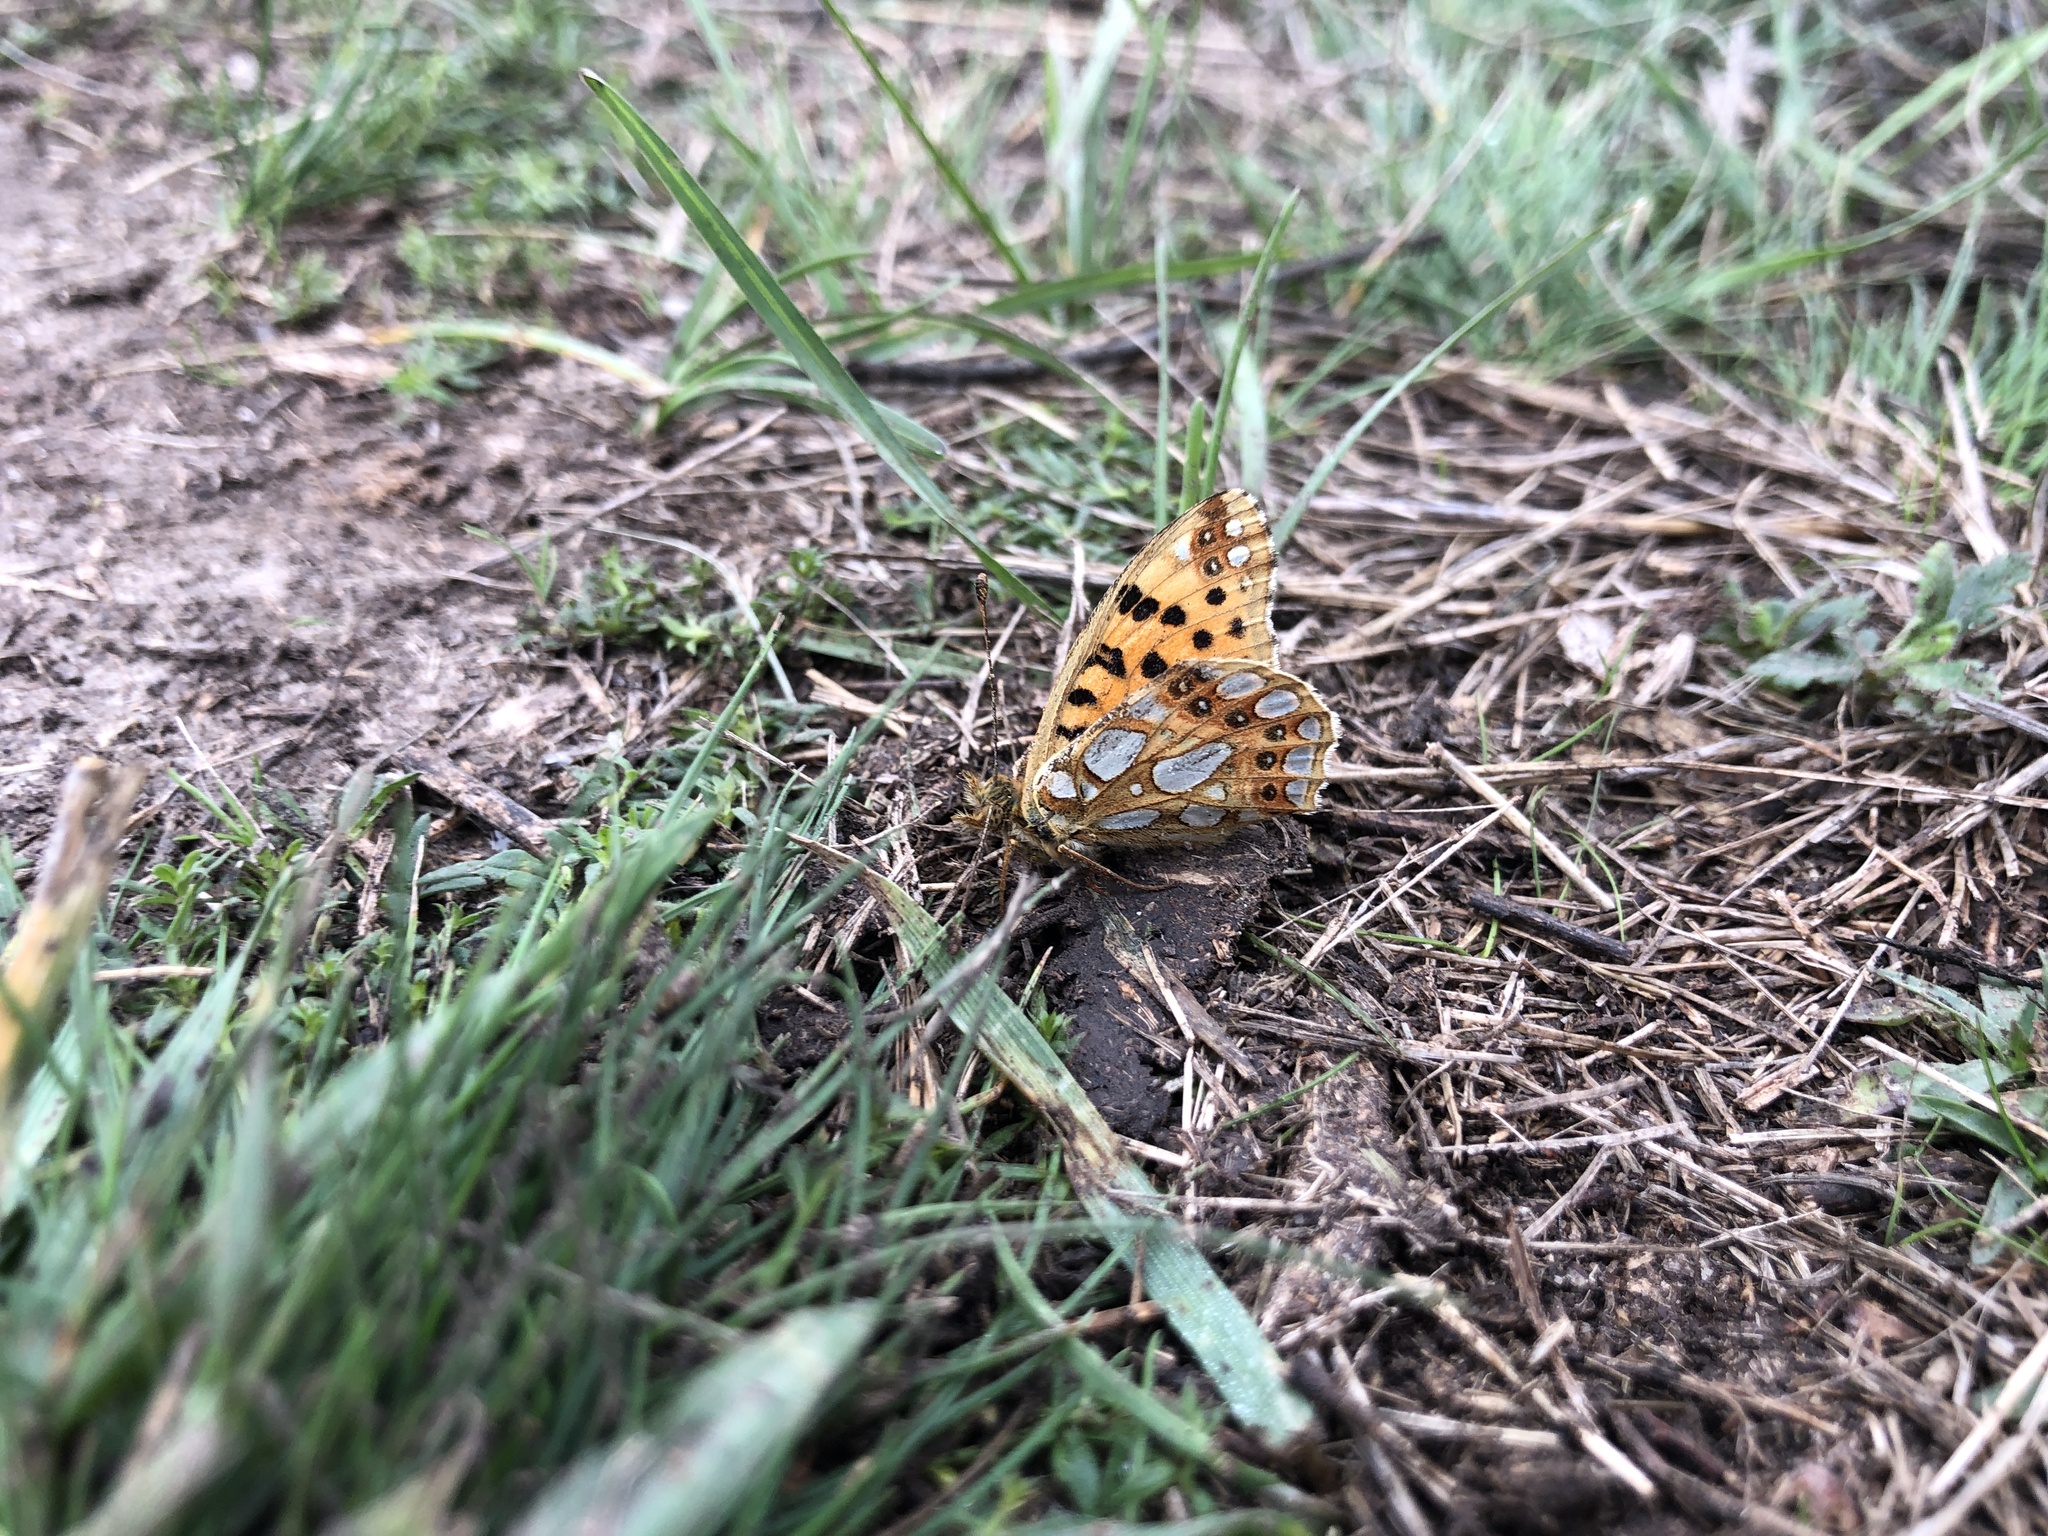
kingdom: Animalia
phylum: Arthropoda
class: Insecta
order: Lepidoptera
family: Nymphalidae
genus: Issoria
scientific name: Issoria lathonia
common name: Queen of spain fritillary
